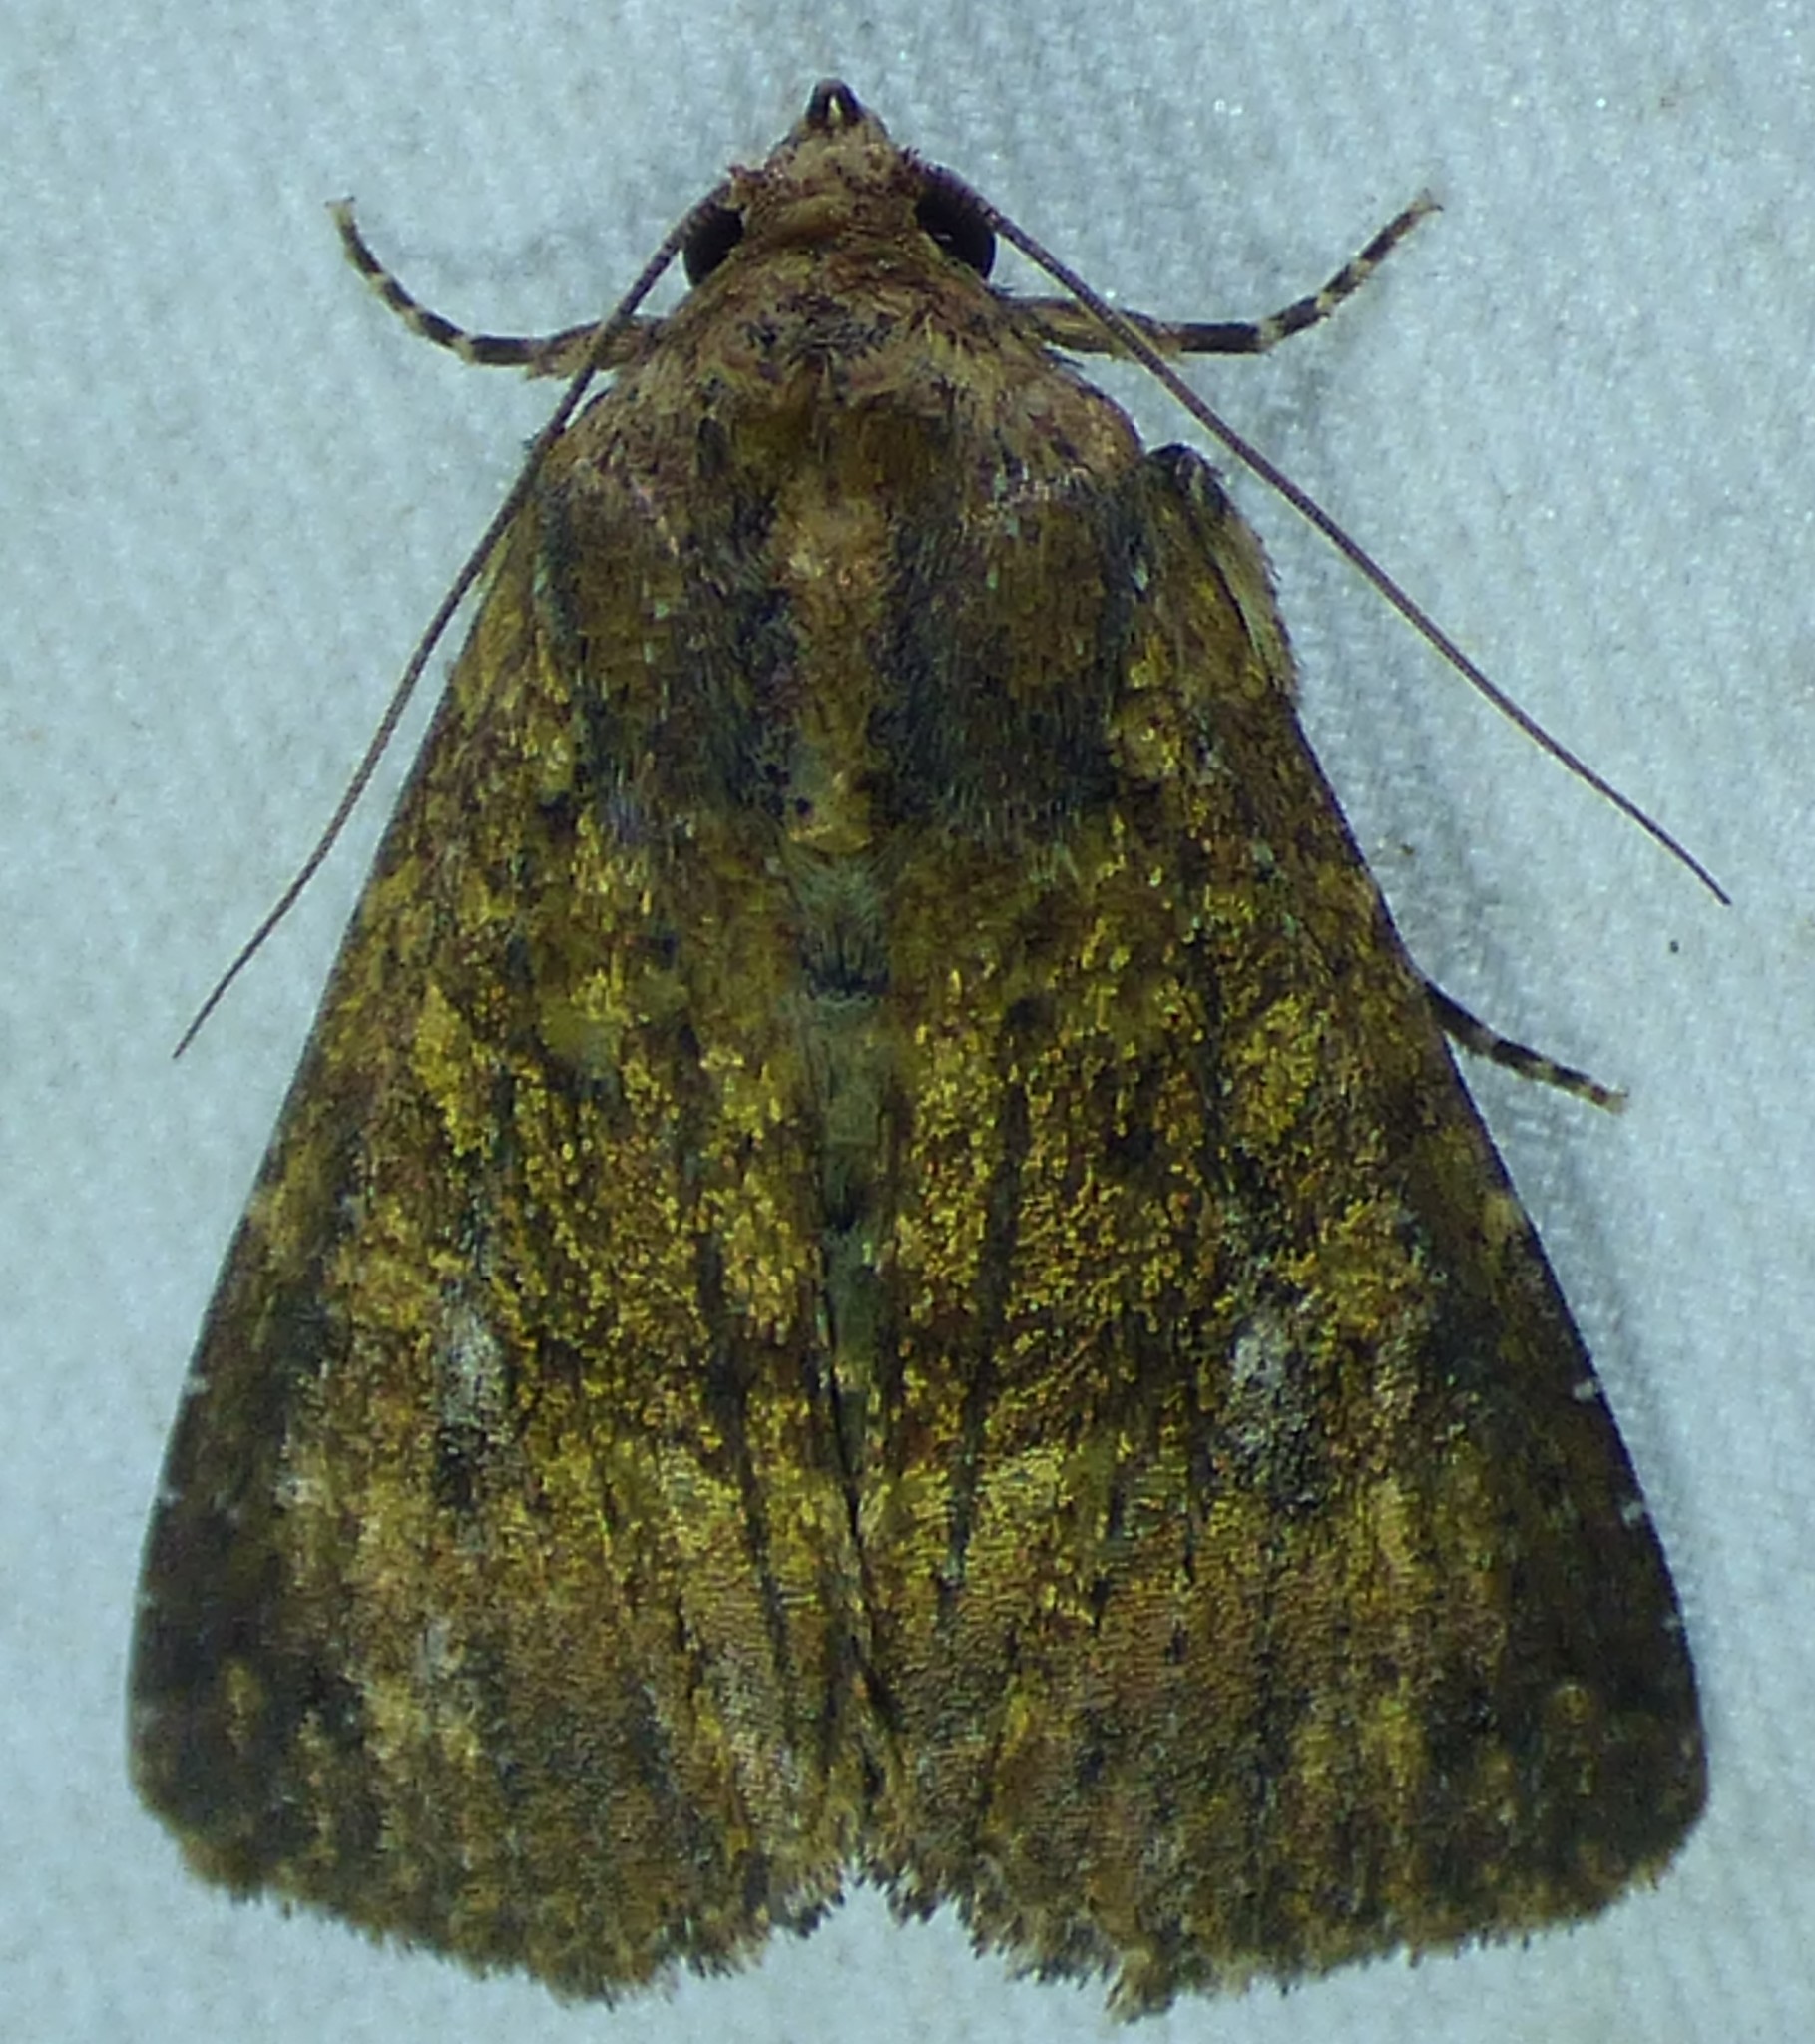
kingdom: Animalia
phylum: Arthropoda
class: Insecta
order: Lepidoptera
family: Noctuidae
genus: Condica
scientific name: Condica vecors
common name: Dusky groundling
